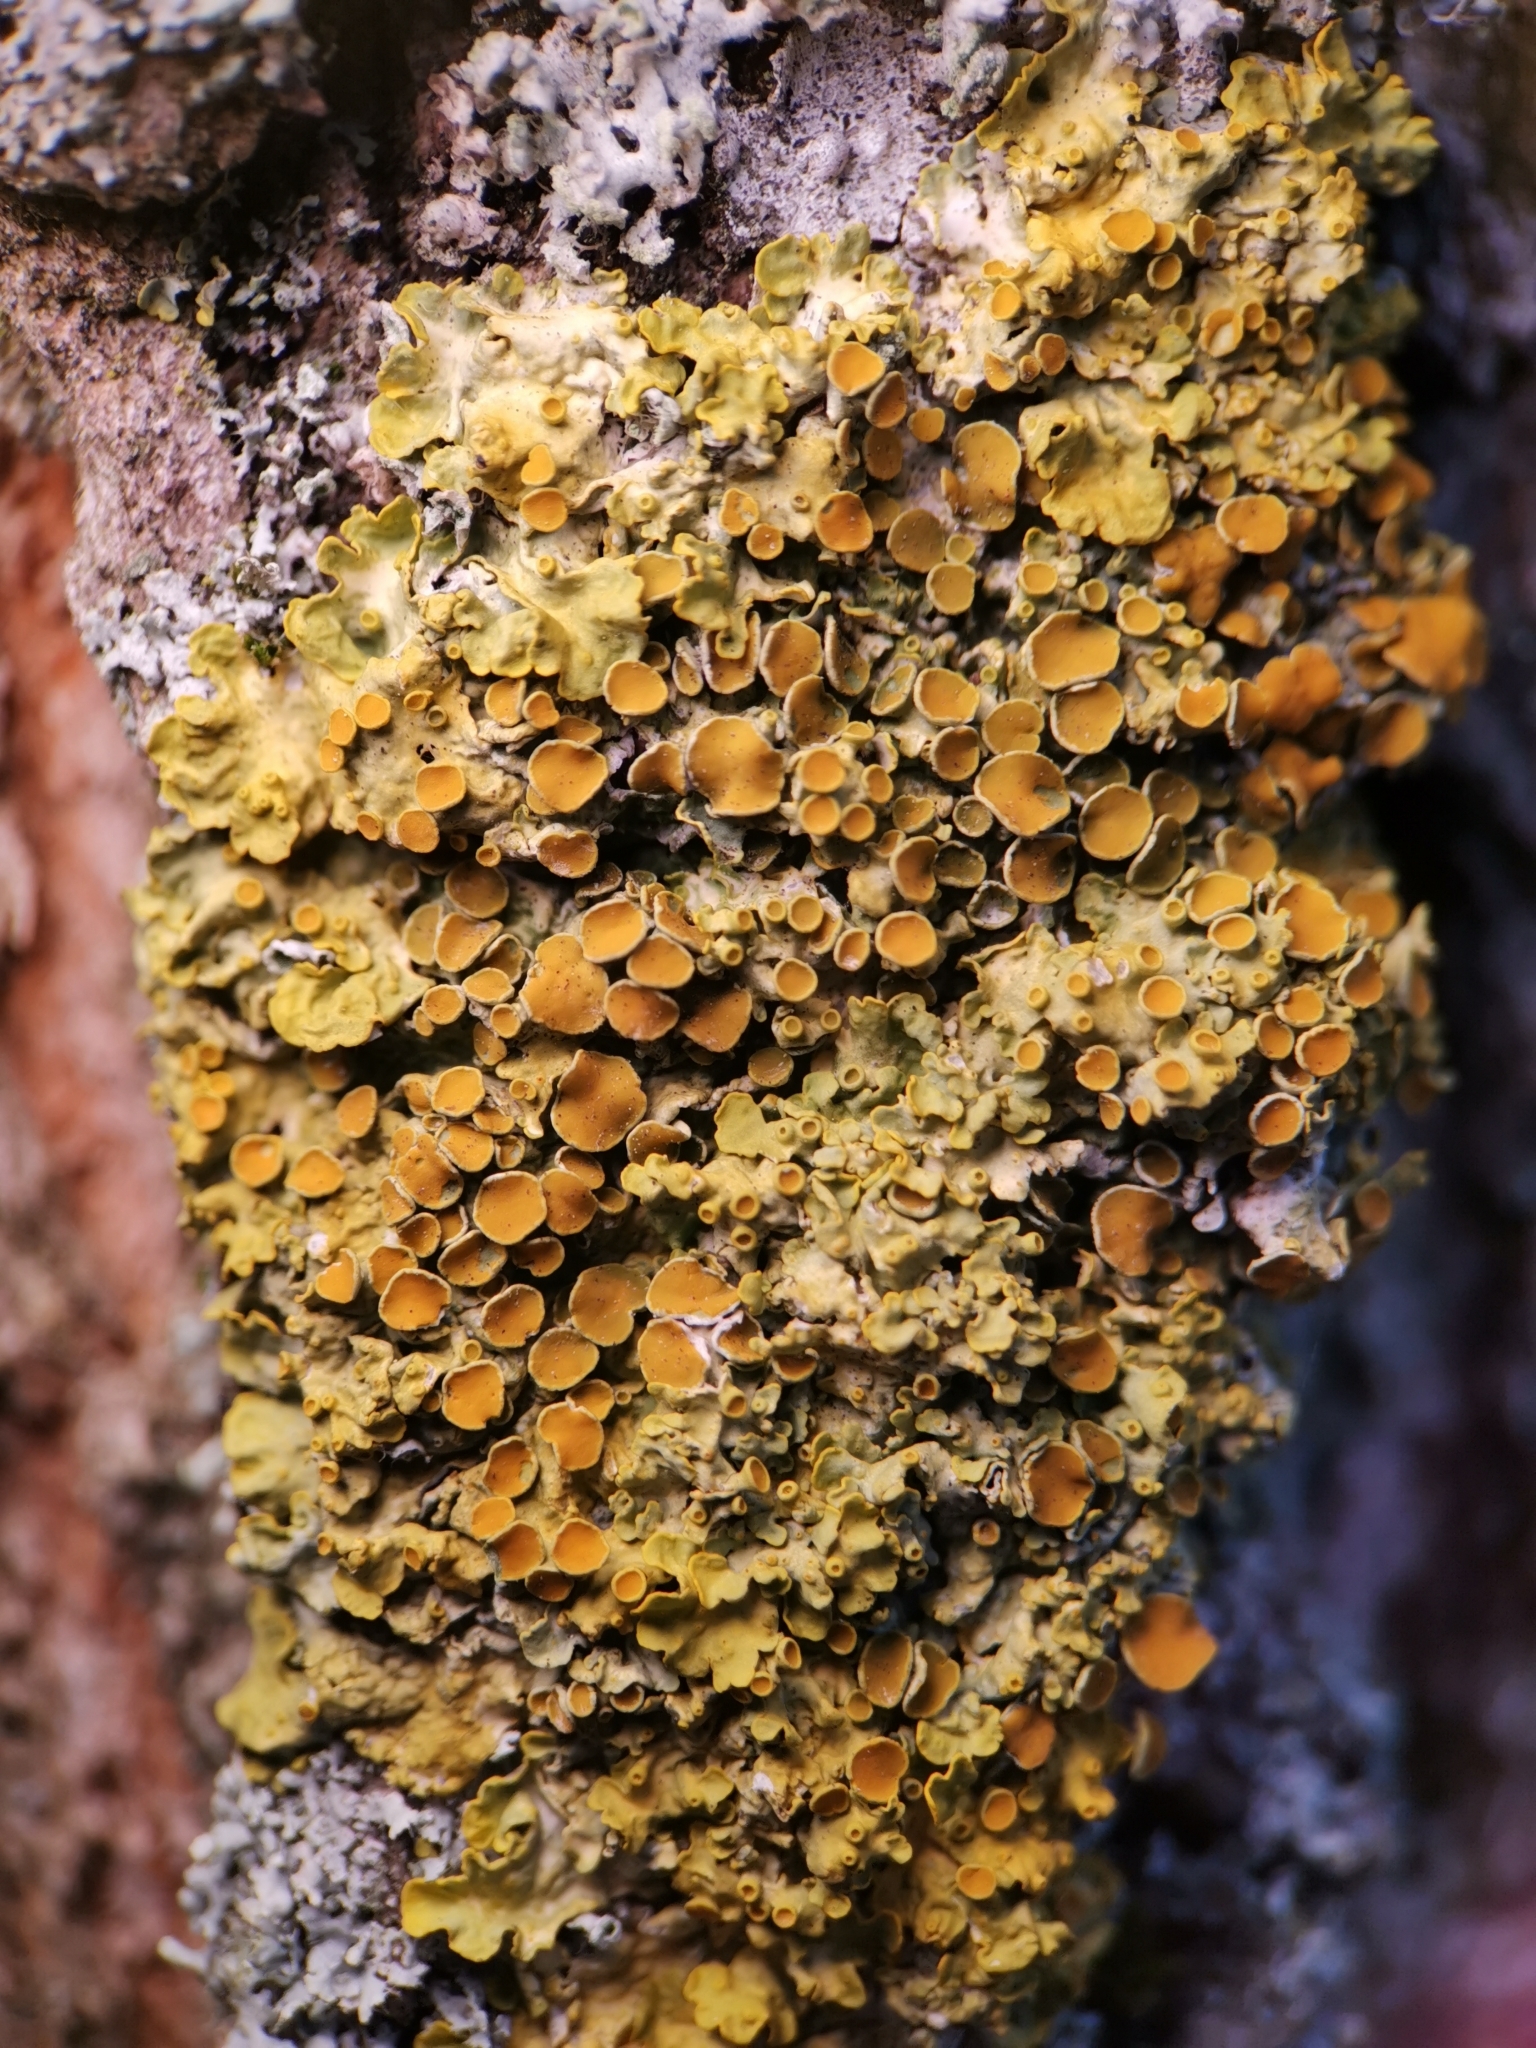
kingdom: Fungi
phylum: Ascomycota
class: Lecanoromycetes
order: Teloschistales
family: Teloschistaceae
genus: Xanthoria
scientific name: Xanthoria parietina
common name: Common orange lichen
